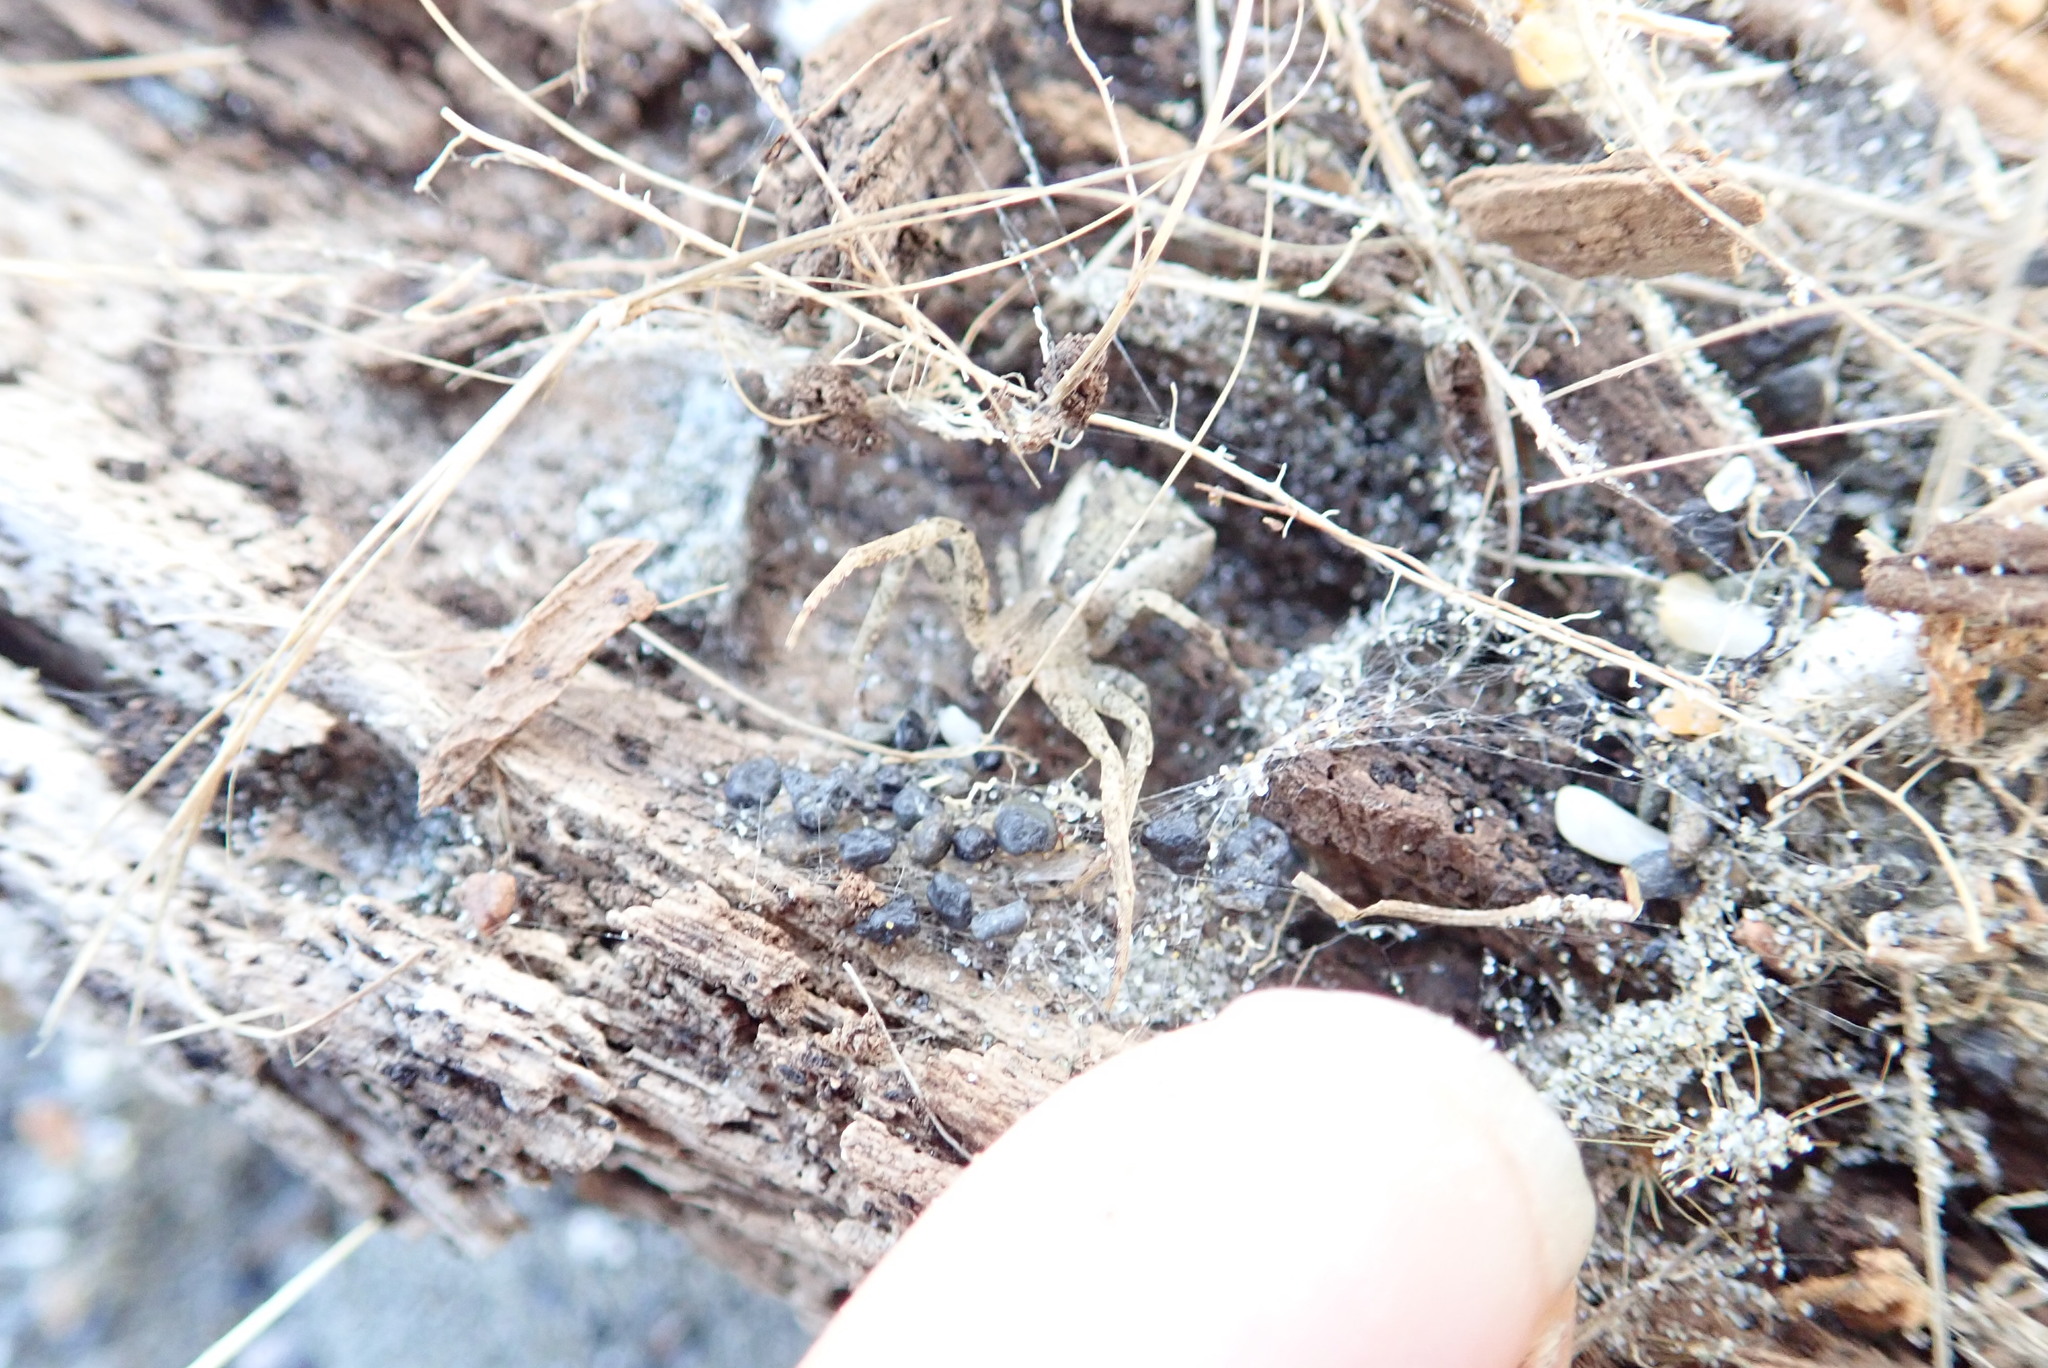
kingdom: Animalia
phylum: Arthropoda
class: Arachnida
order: Araneae
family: Thomisidae
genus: Sidymella
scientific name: Sidymella trapezia
